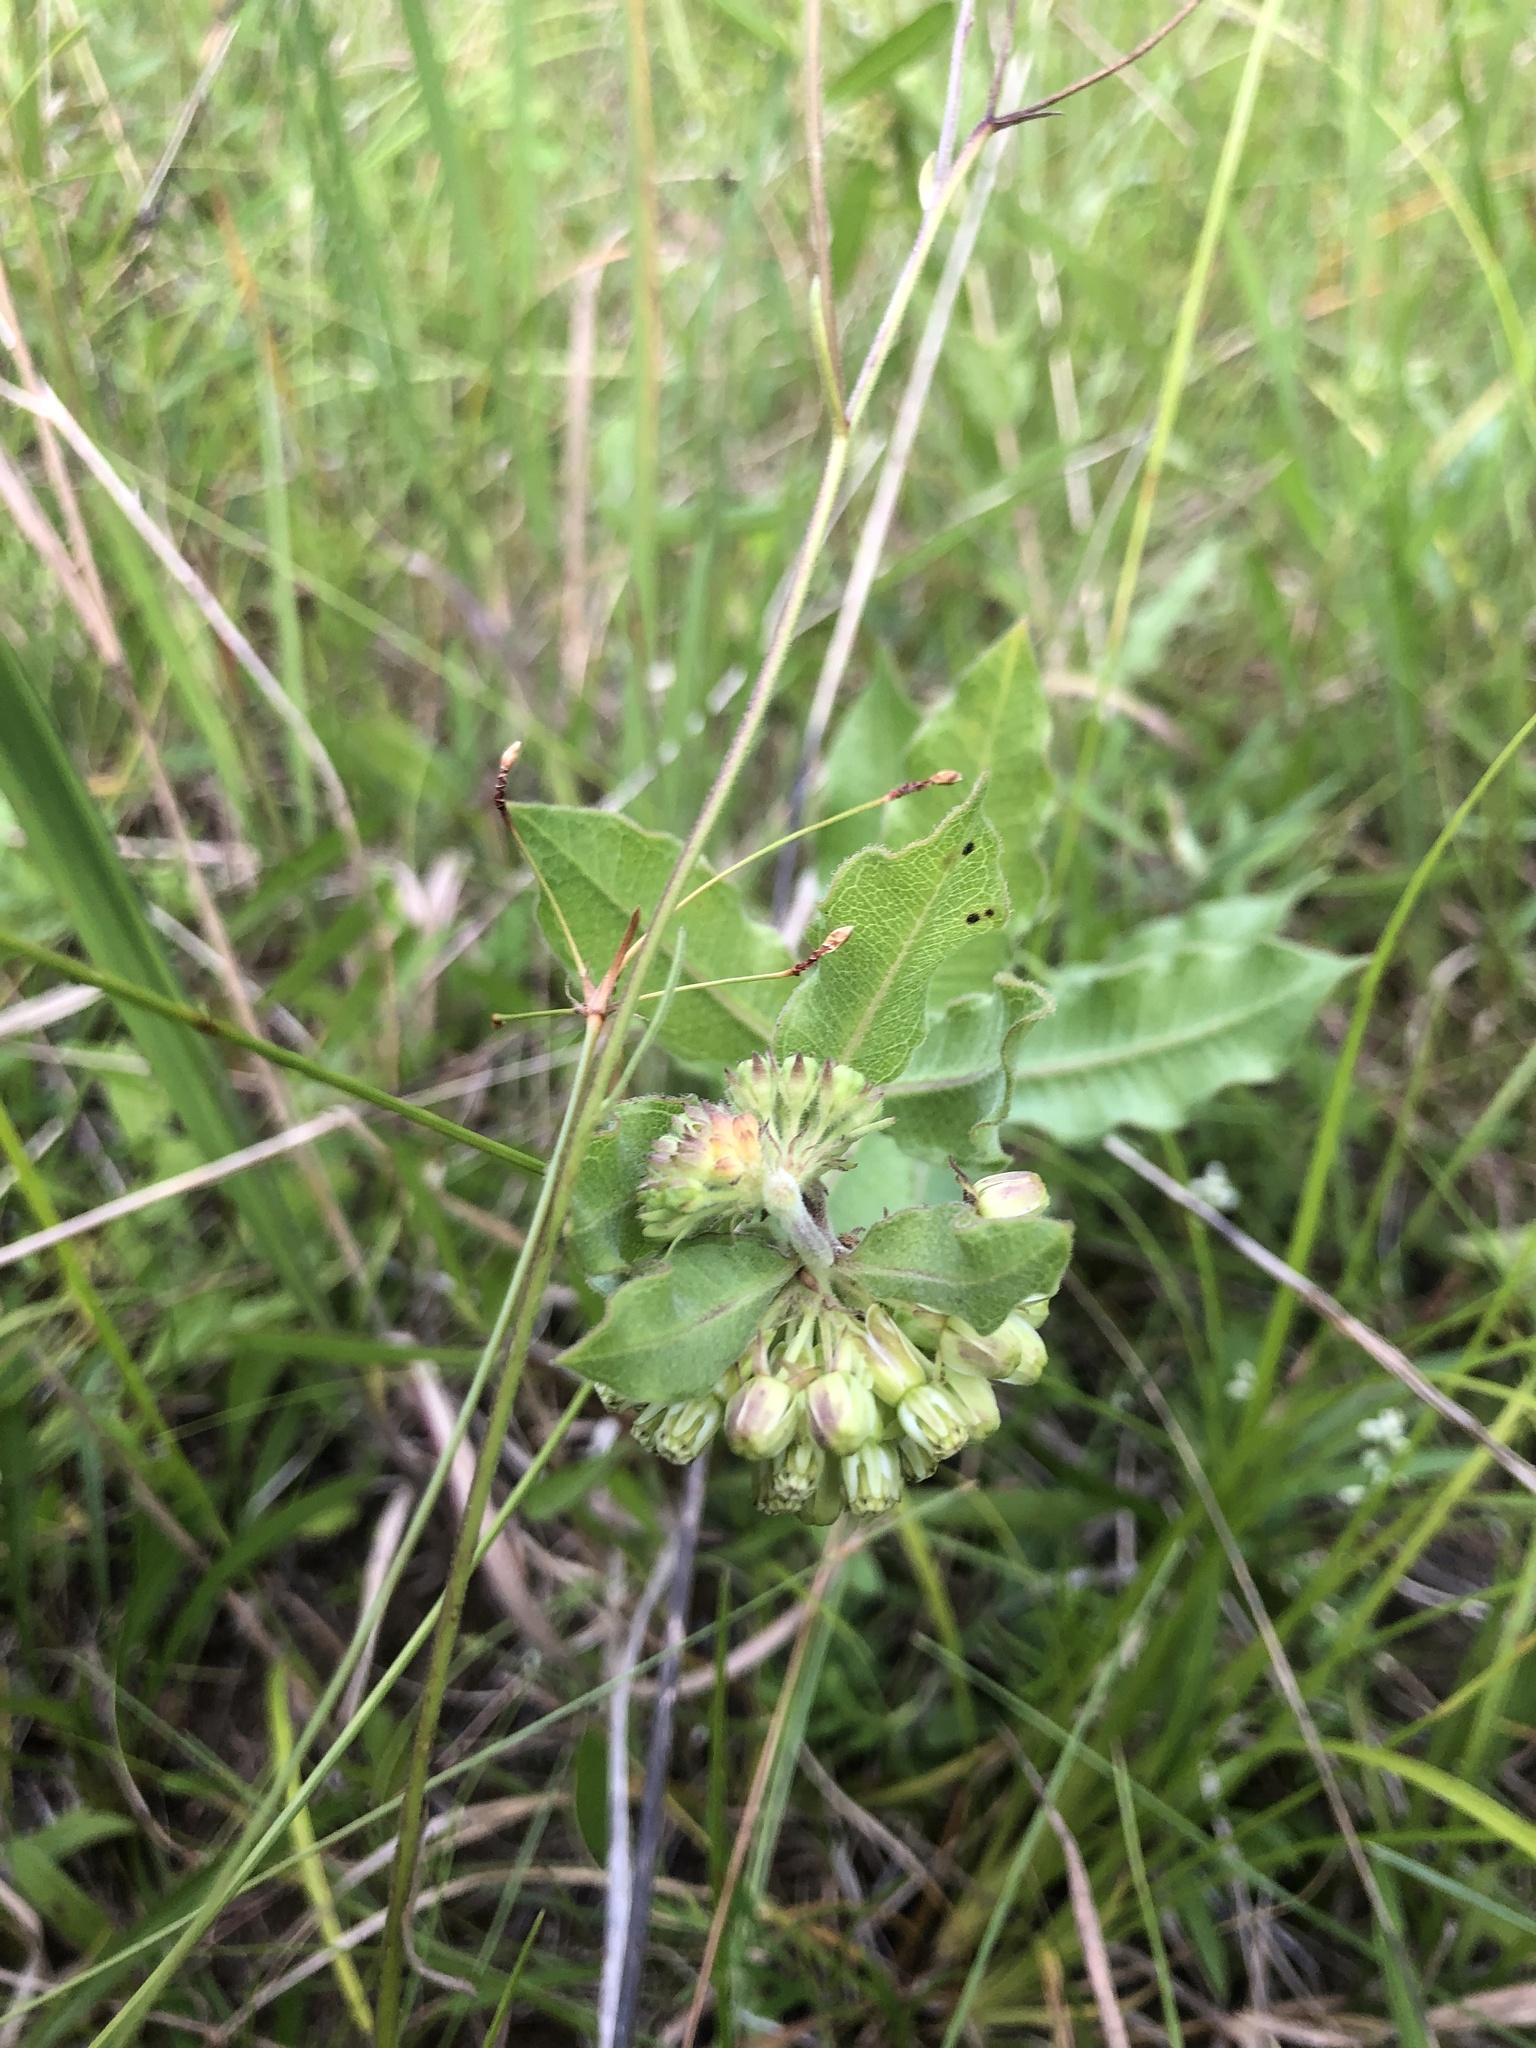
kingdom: Plantae
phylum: Tracheophyta
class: Magnoliopsida
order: Gentianales
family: Apocynaceae
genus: Asclepias
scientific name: Asclepias viridiflora
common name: Green comet milkweed
